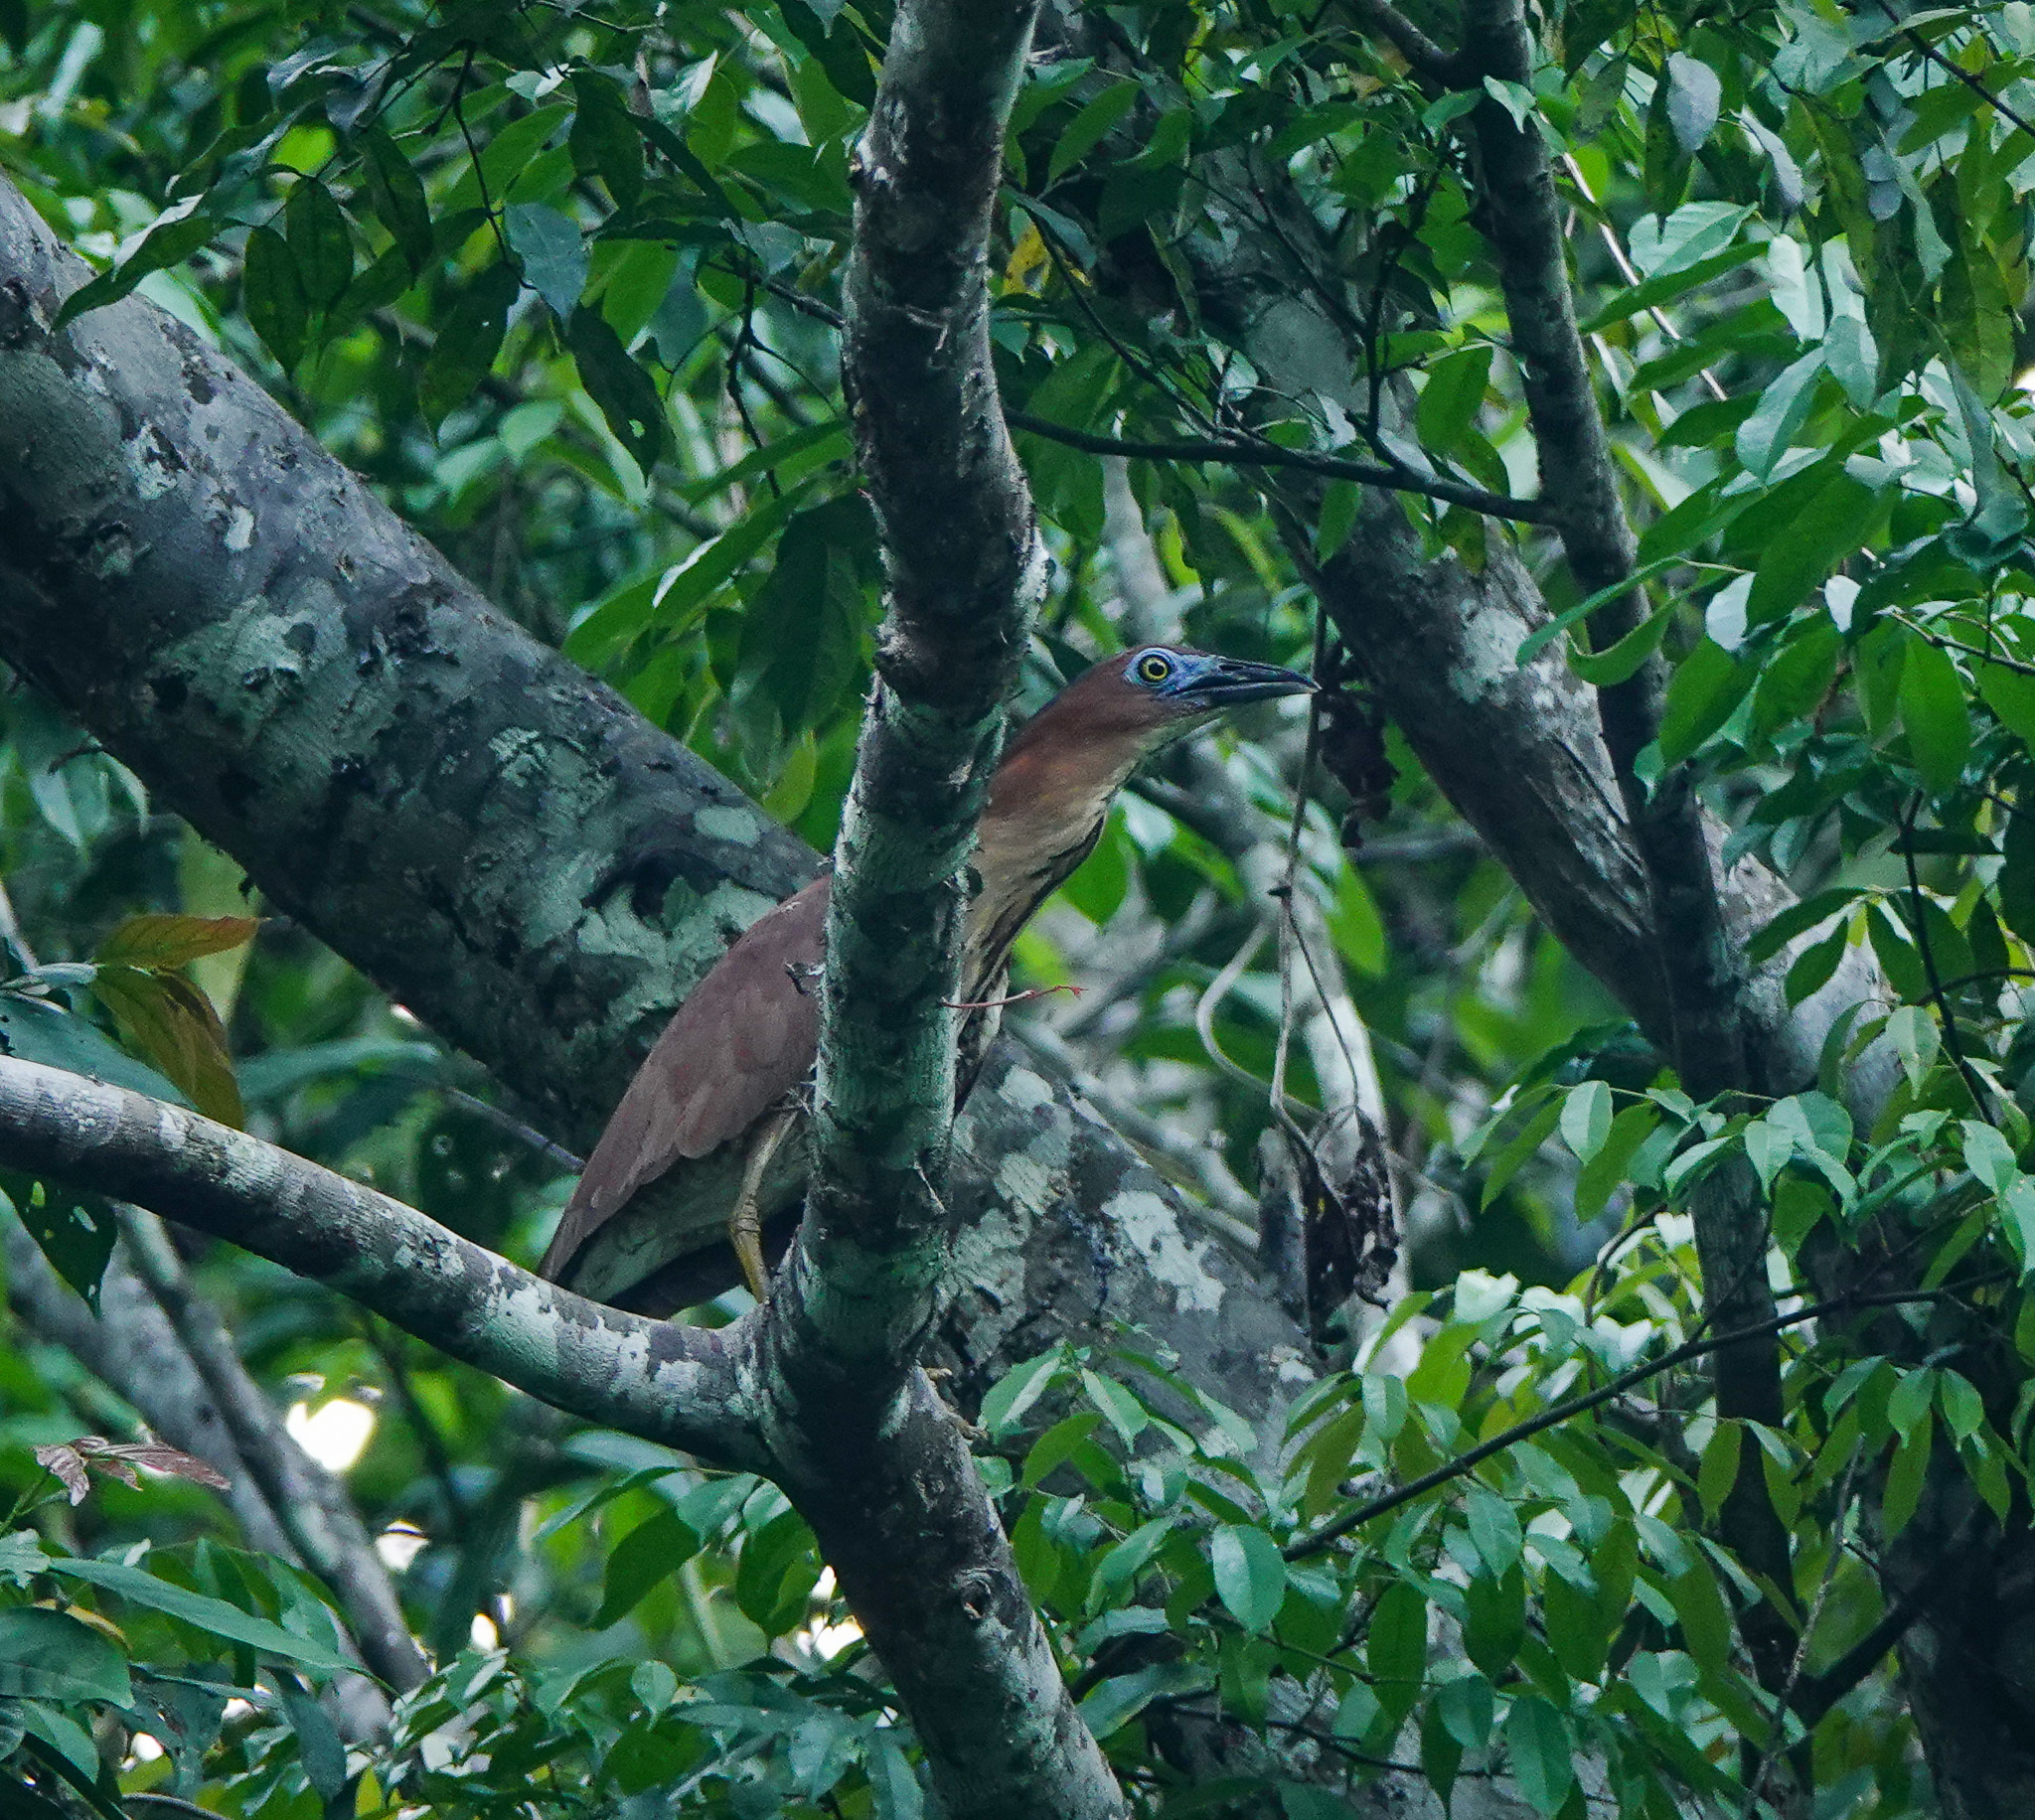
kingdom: Animalia
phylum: Chordata
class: Aves
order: Pelecaniformes
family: Ardeidae
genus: Gorsachius
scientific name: Gorsachius melanolophus
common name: Malayan night heron
